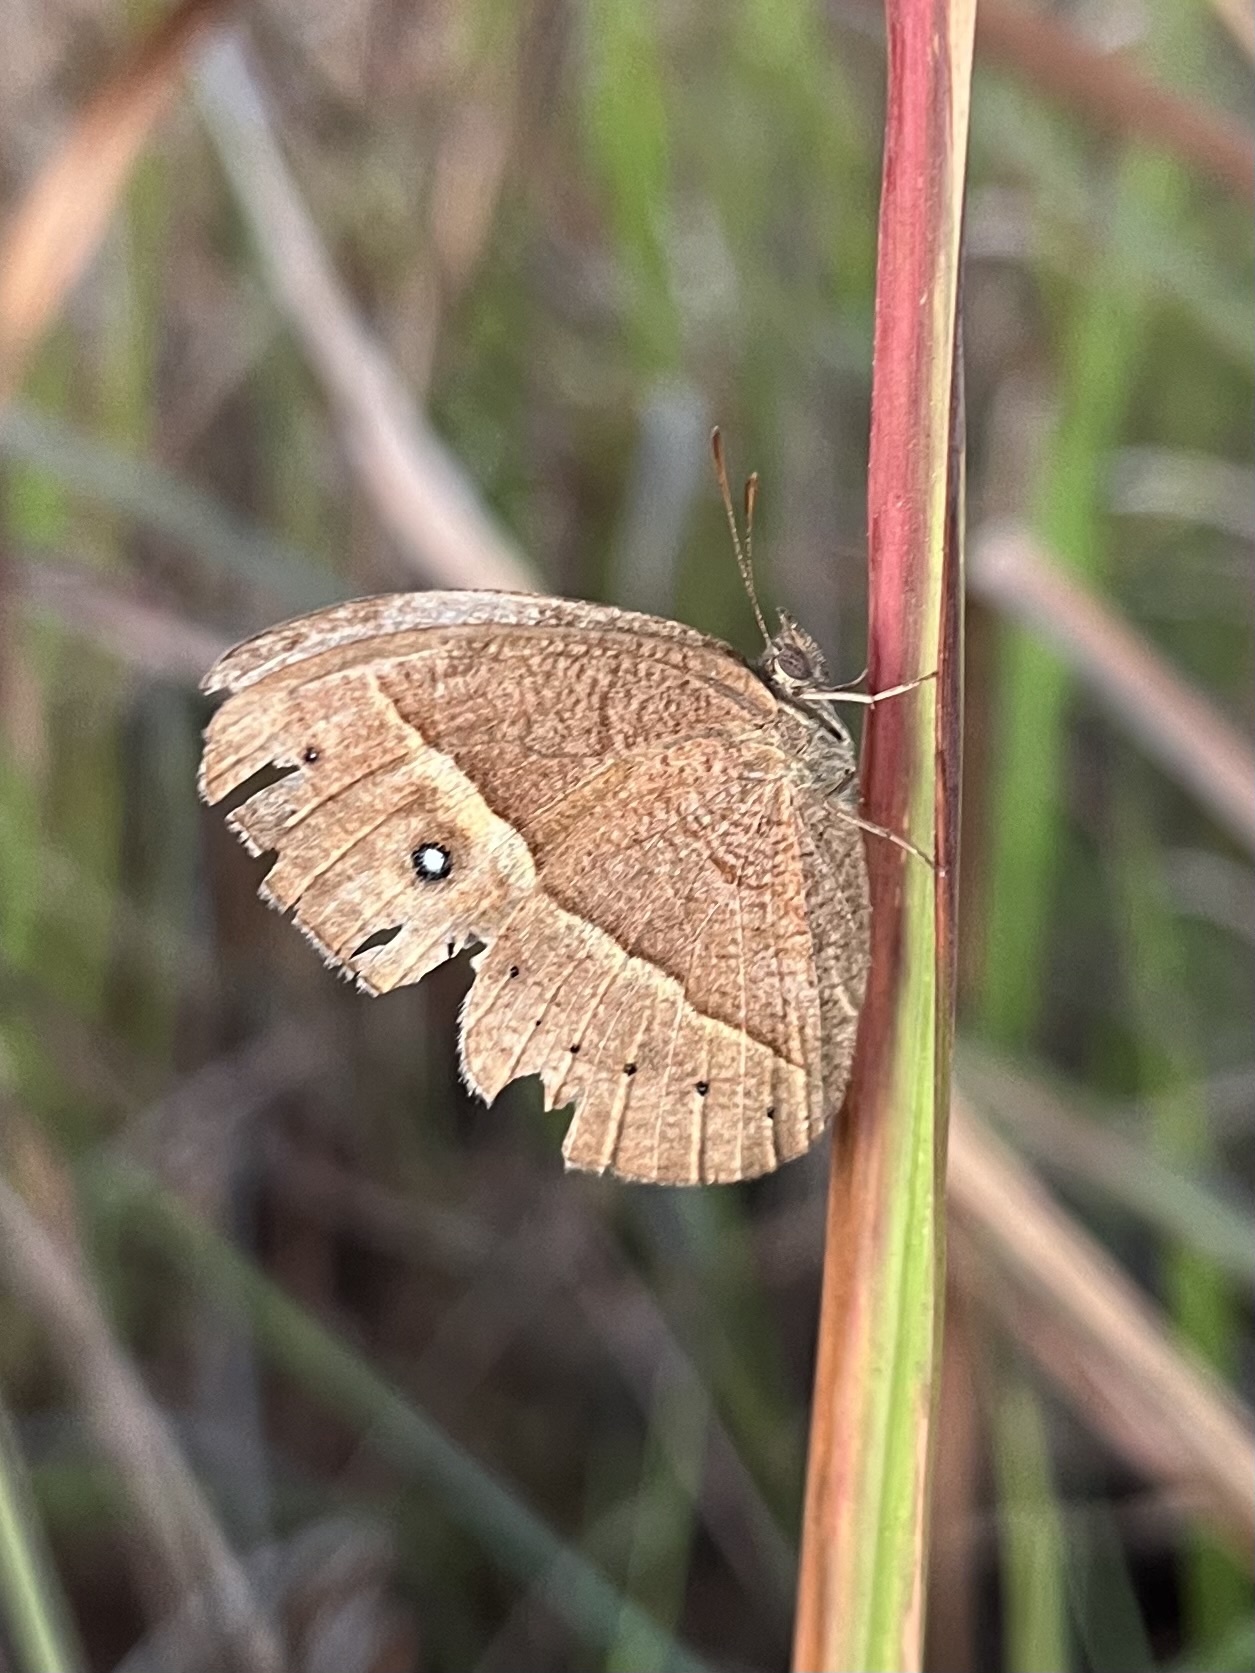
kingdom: Animalia
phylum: Arthropoda
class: Insecta
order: Lepidoptera
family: Nymphalidae
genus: Heteropsis
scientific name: Heteropsis perspicua
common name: Eyed bush brown
